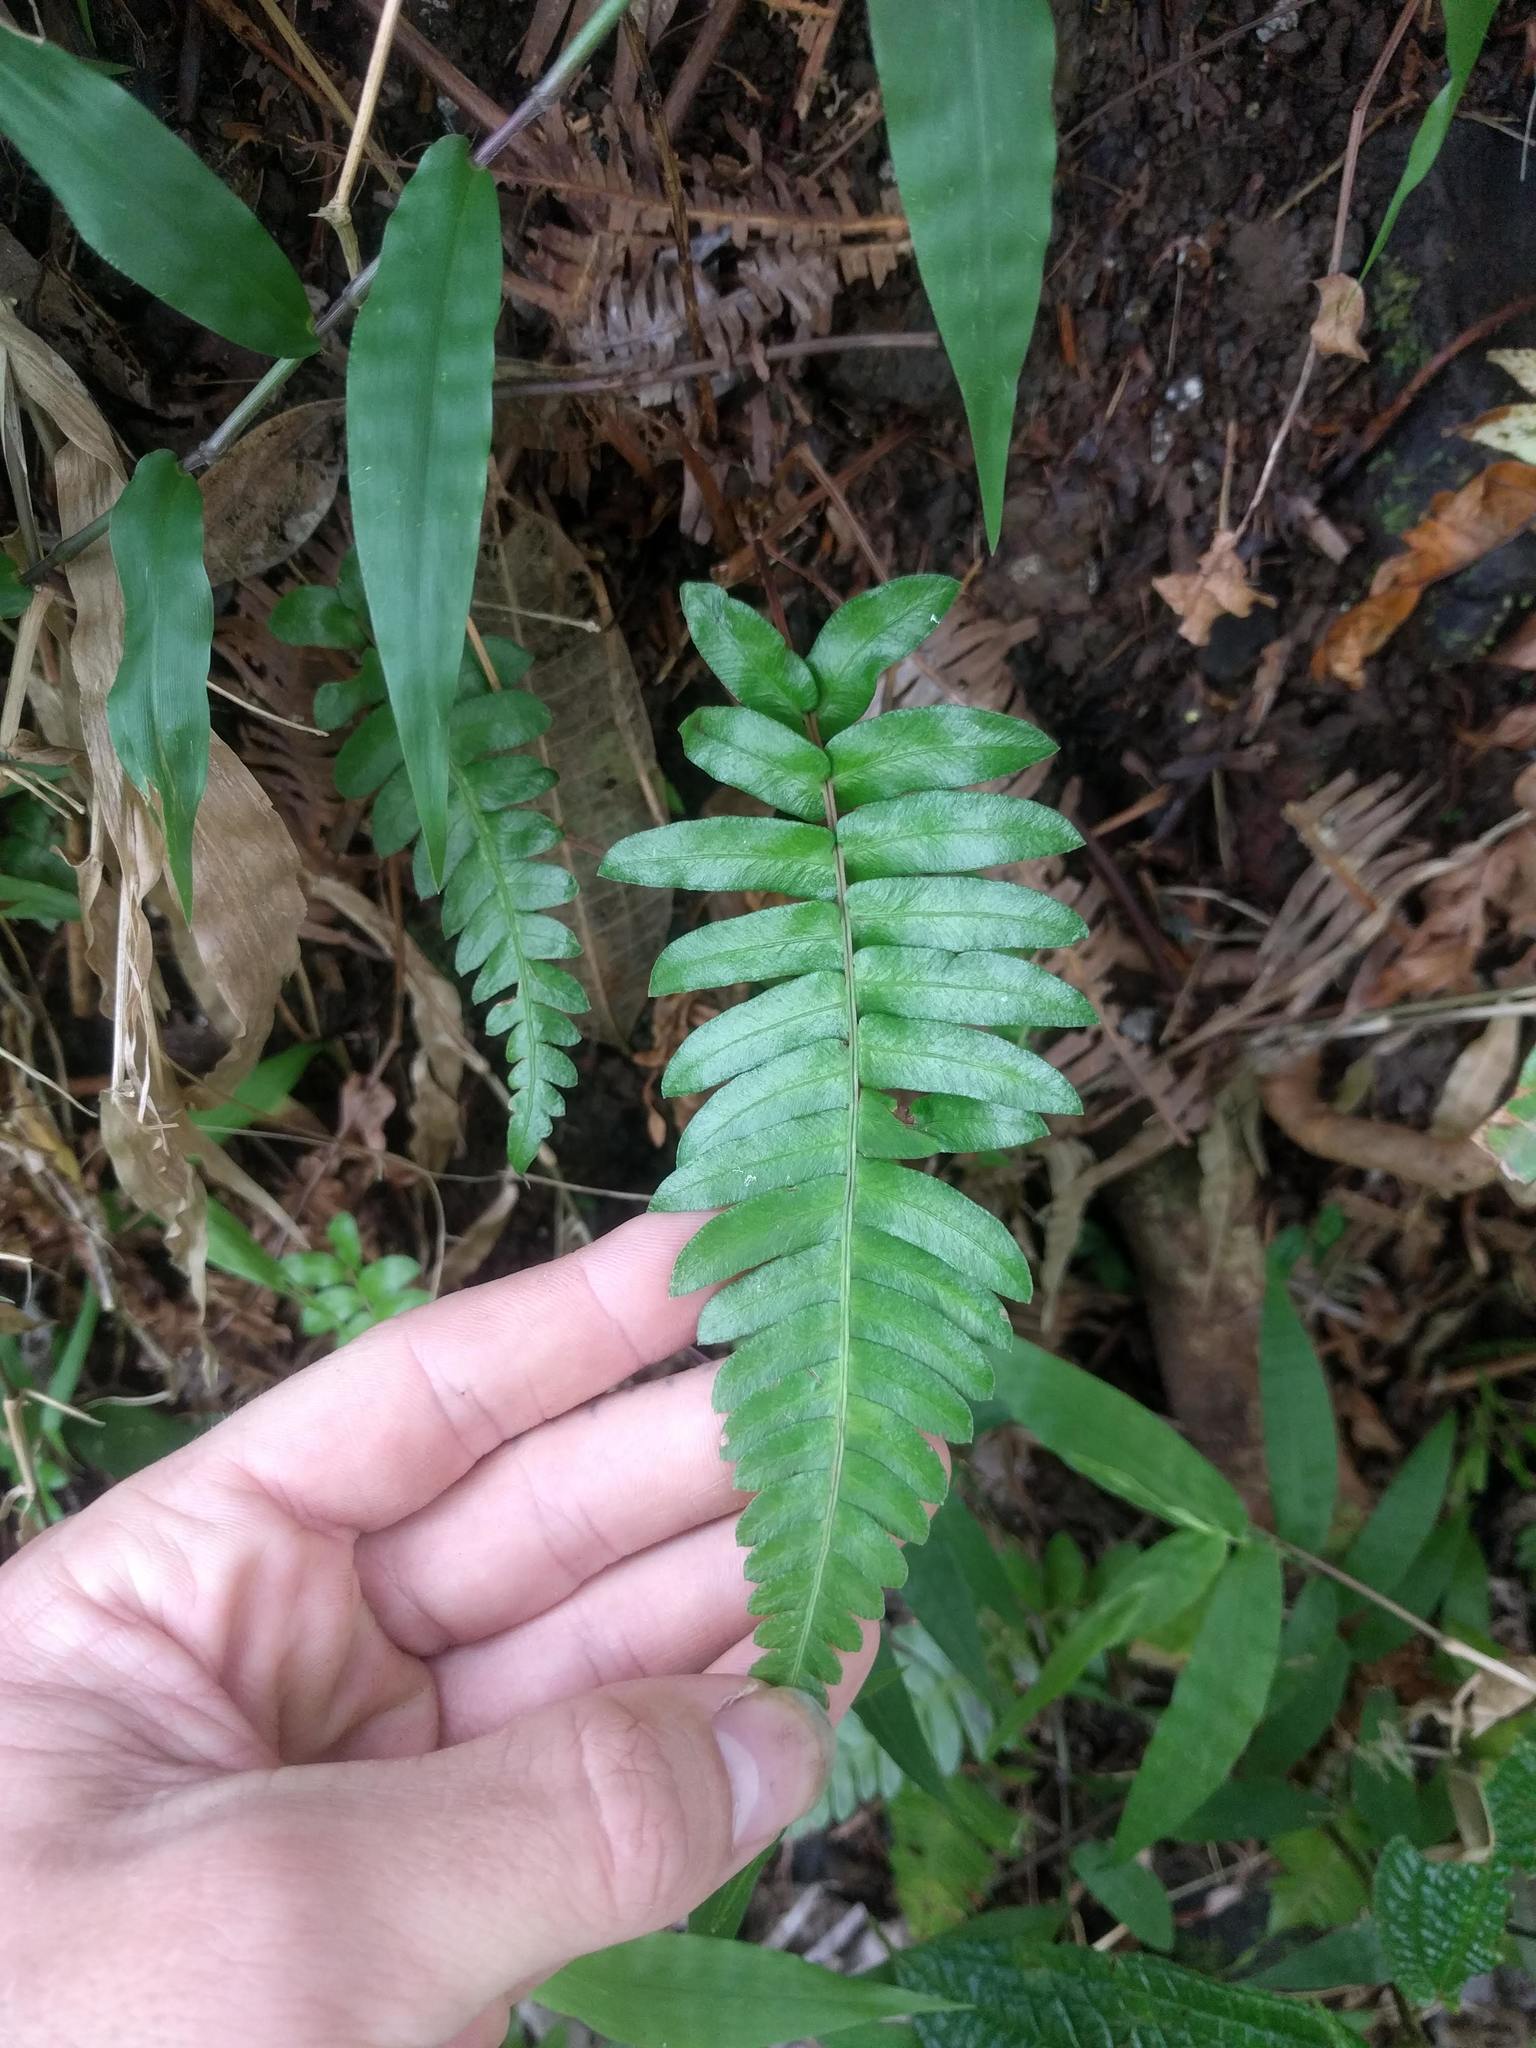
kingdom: Plantae
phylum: Tracheophyta
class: Polypodiopsida
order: Polypodiales
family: Blechnaceae
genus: Blechnum
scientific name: Blechnum appendiculatum
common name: Palm fern
